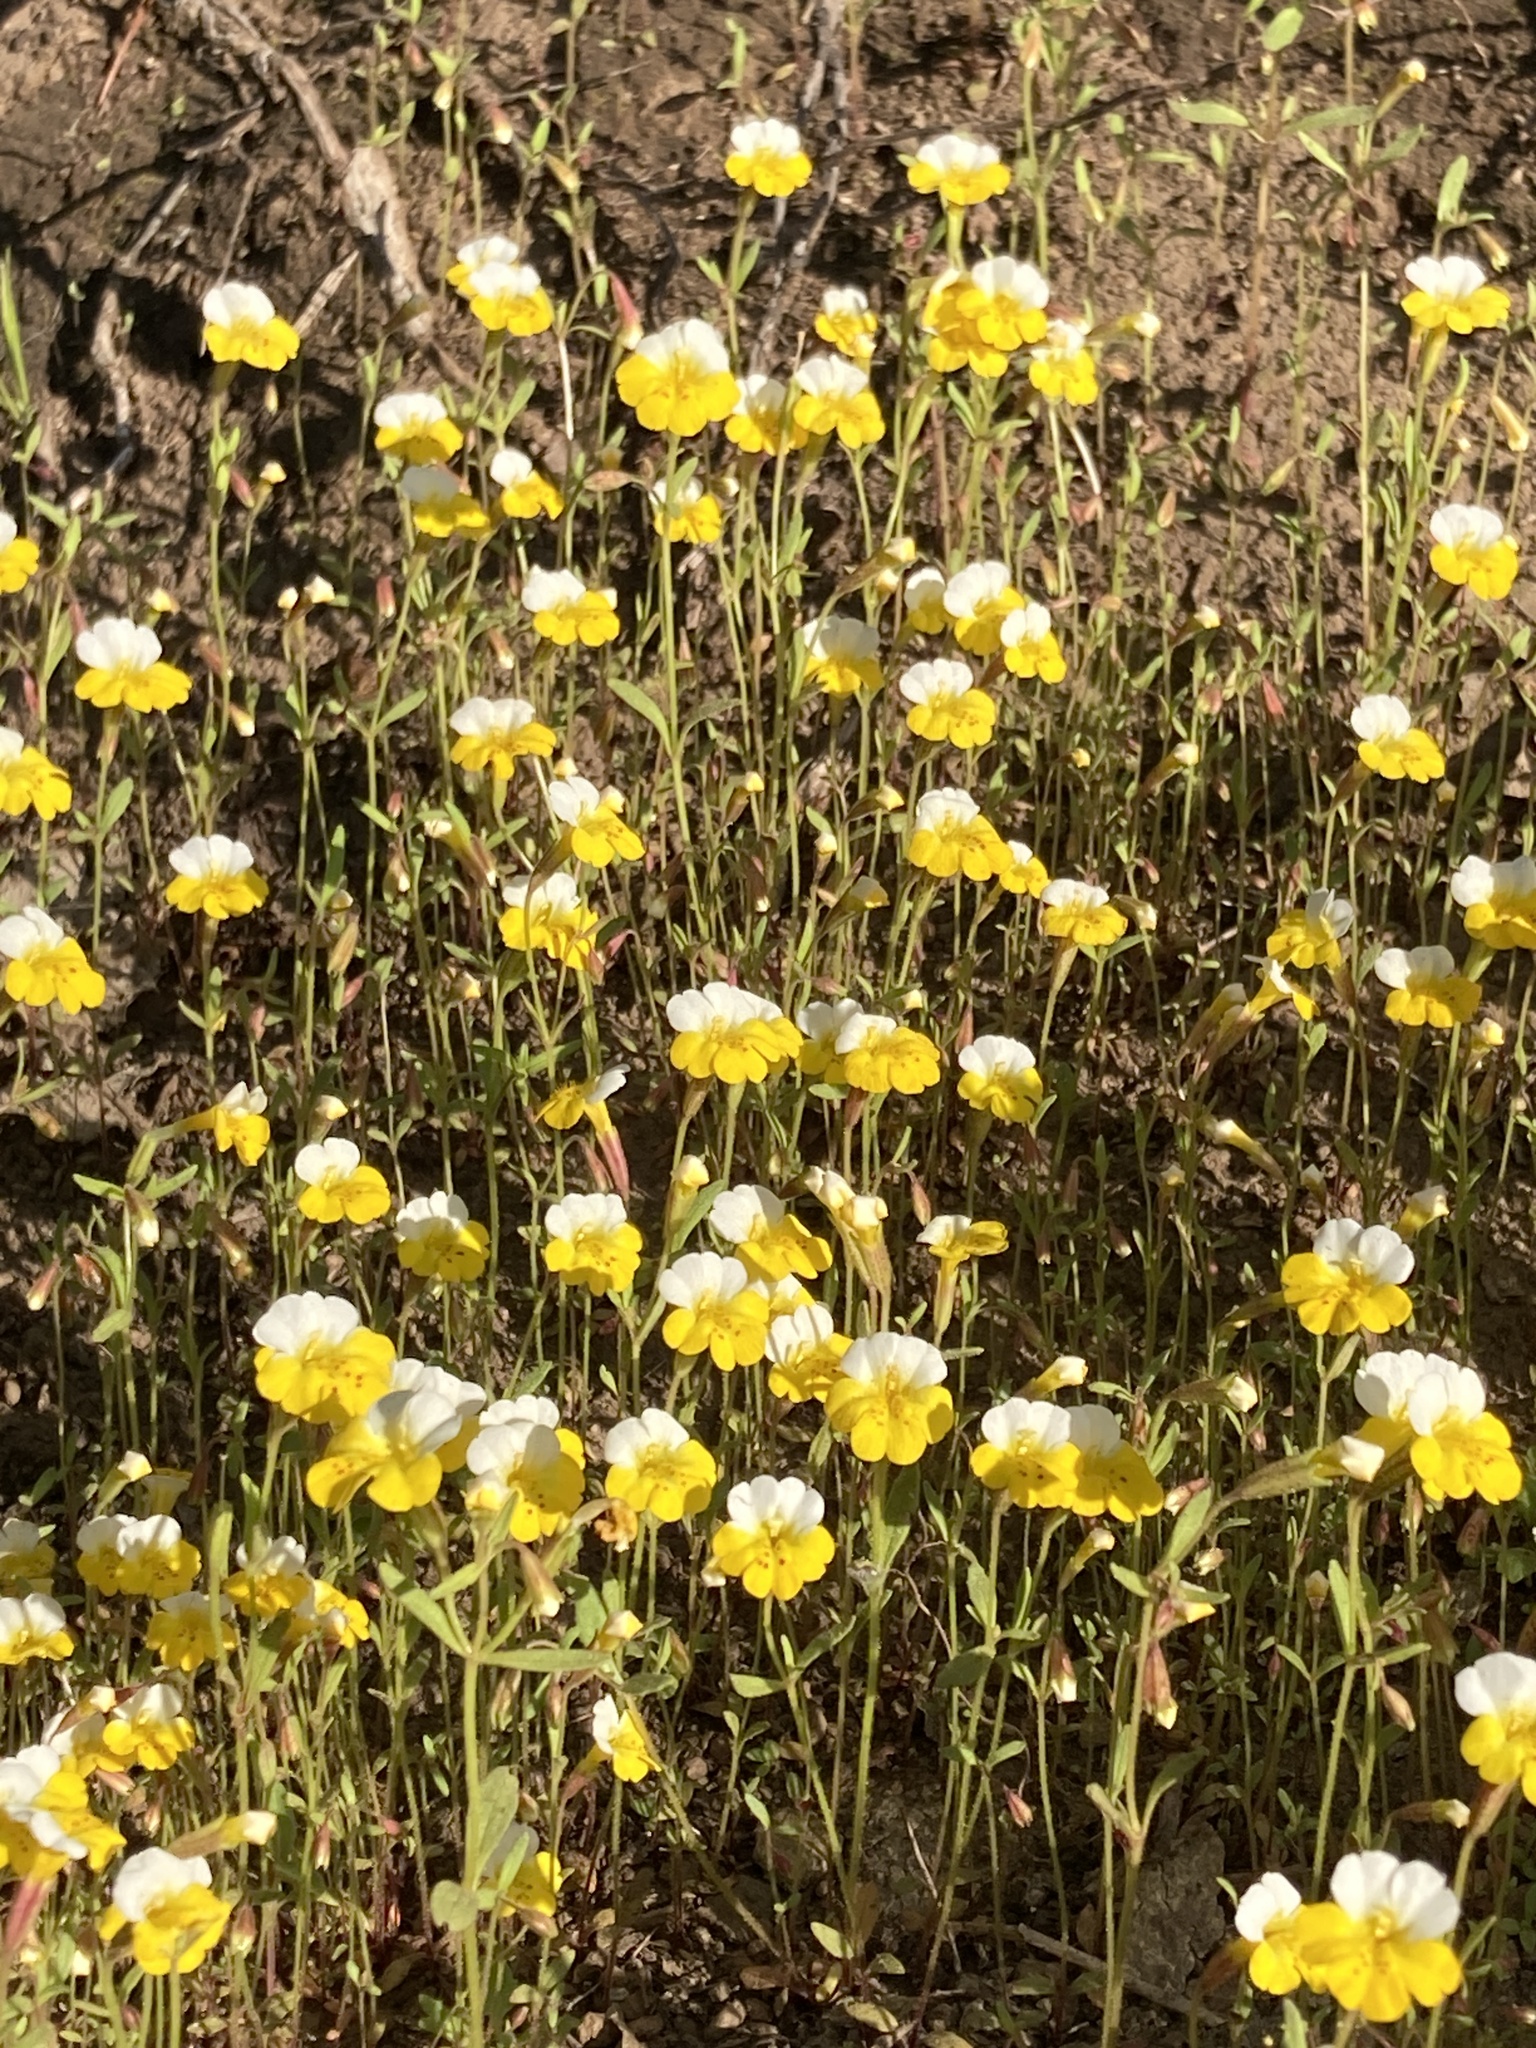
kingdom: Plantae
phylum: Tracheophyta
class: Magnoliopsida
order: Lamiales
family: Phrymaceae
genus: Erythranthe
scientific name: Erythranthe bicolor
